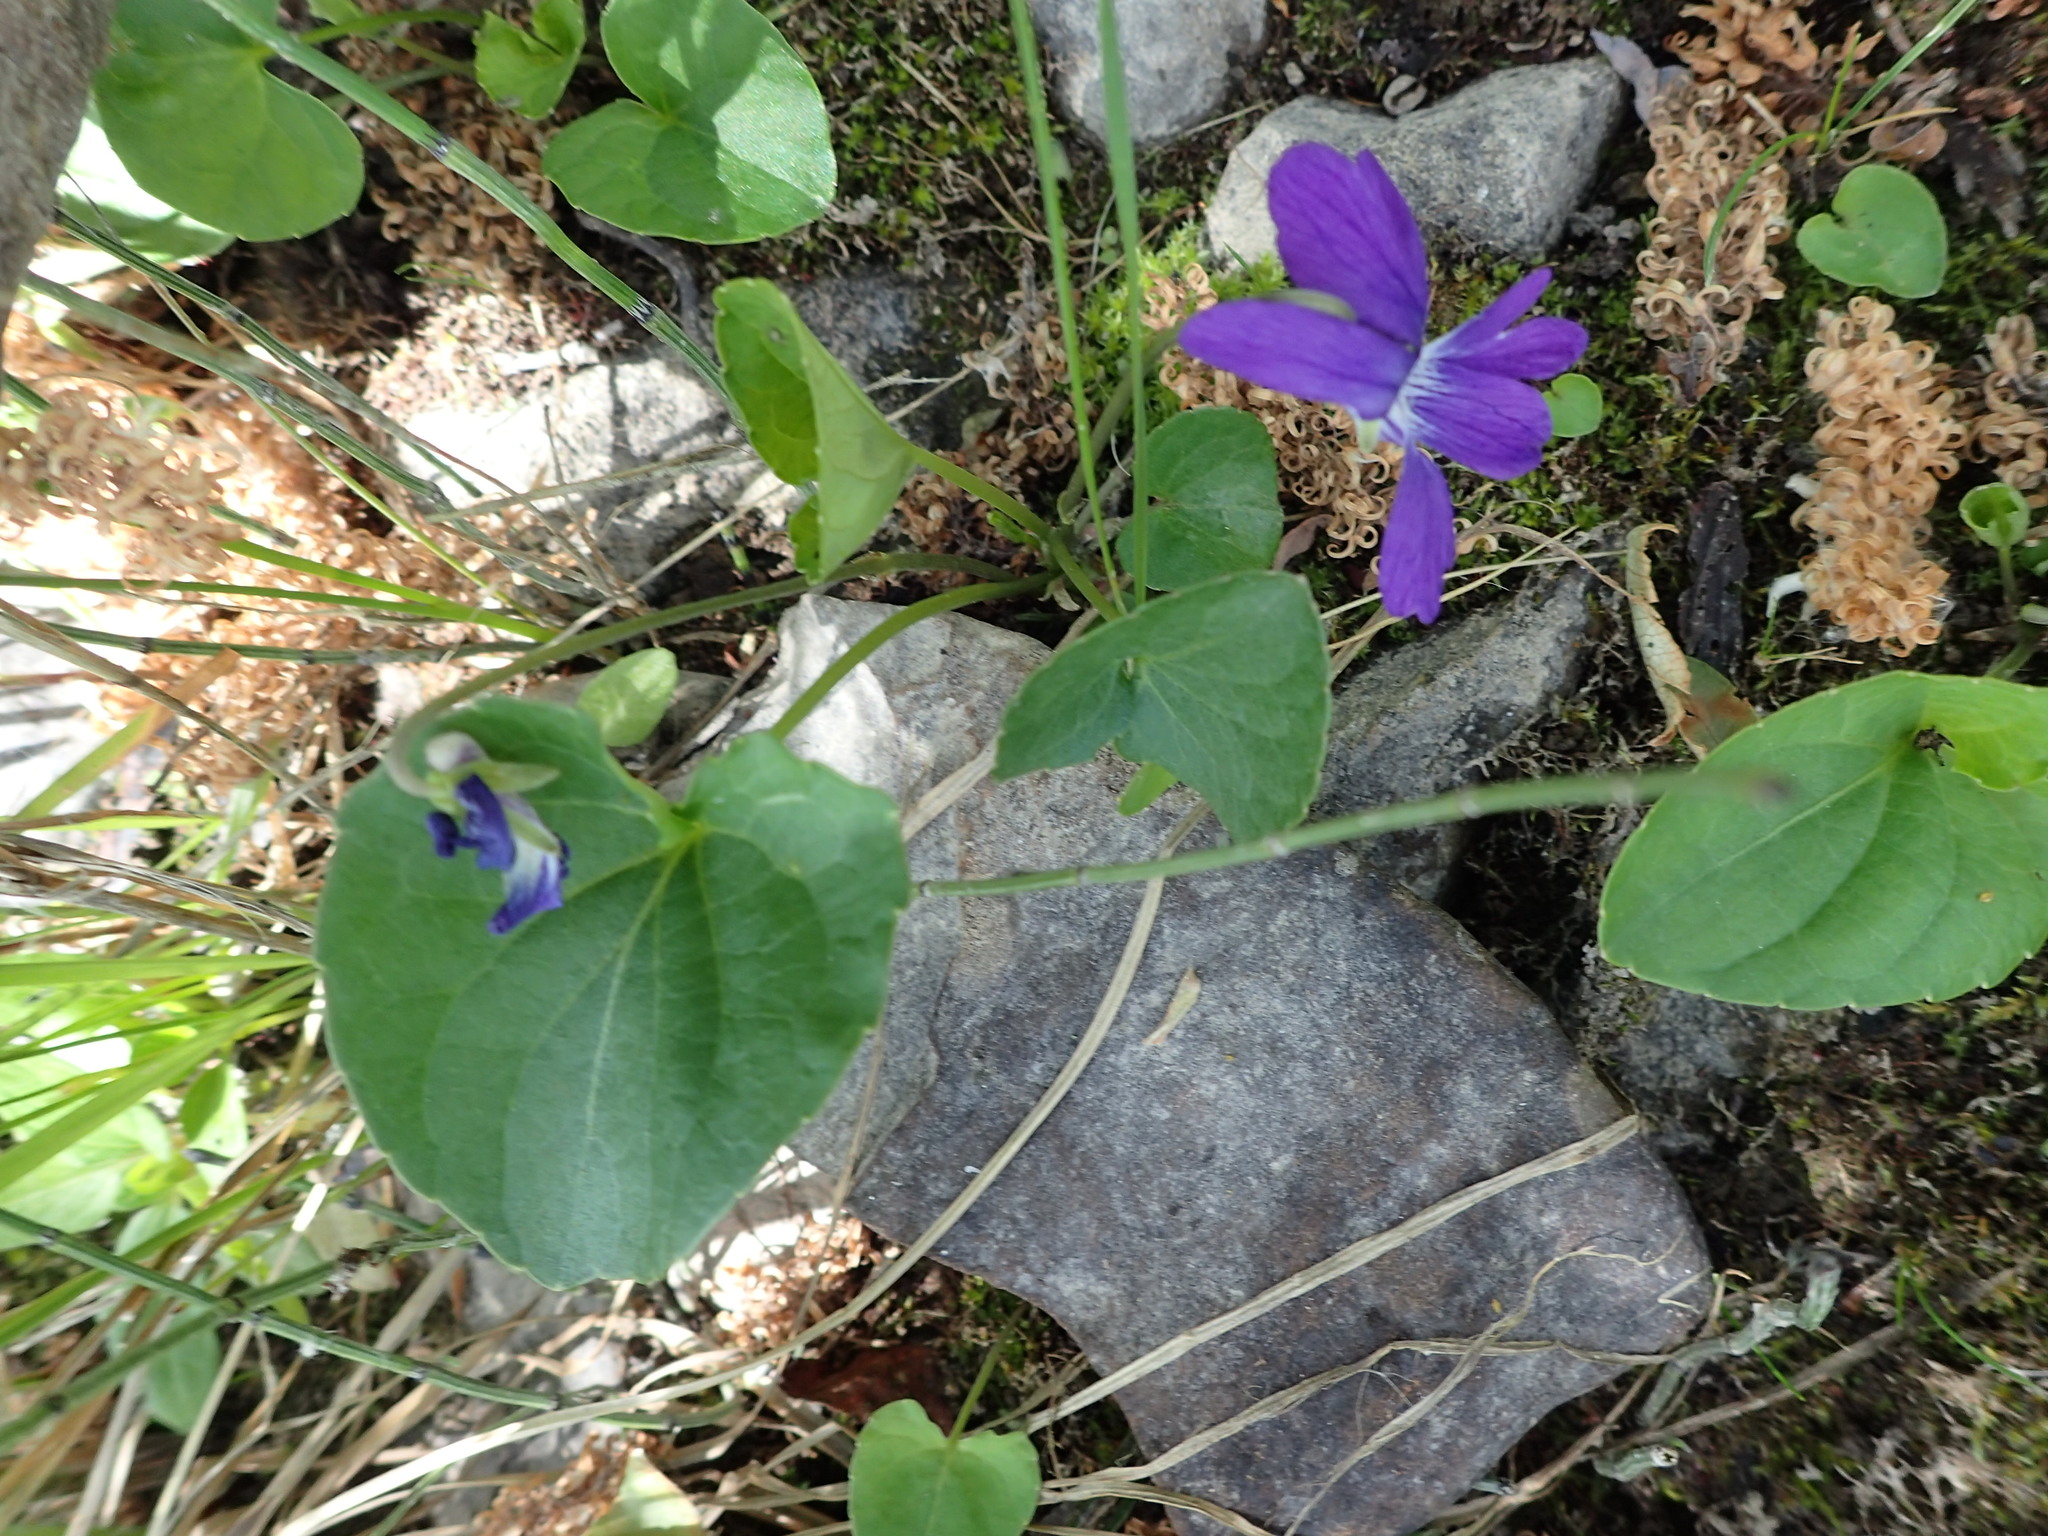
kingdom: Plantae
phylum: Tracheophyta
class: Magnoliopsida
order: Malpighiales
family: Violaceae
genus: Viola
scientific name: Viola adunca
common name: Sand violet
